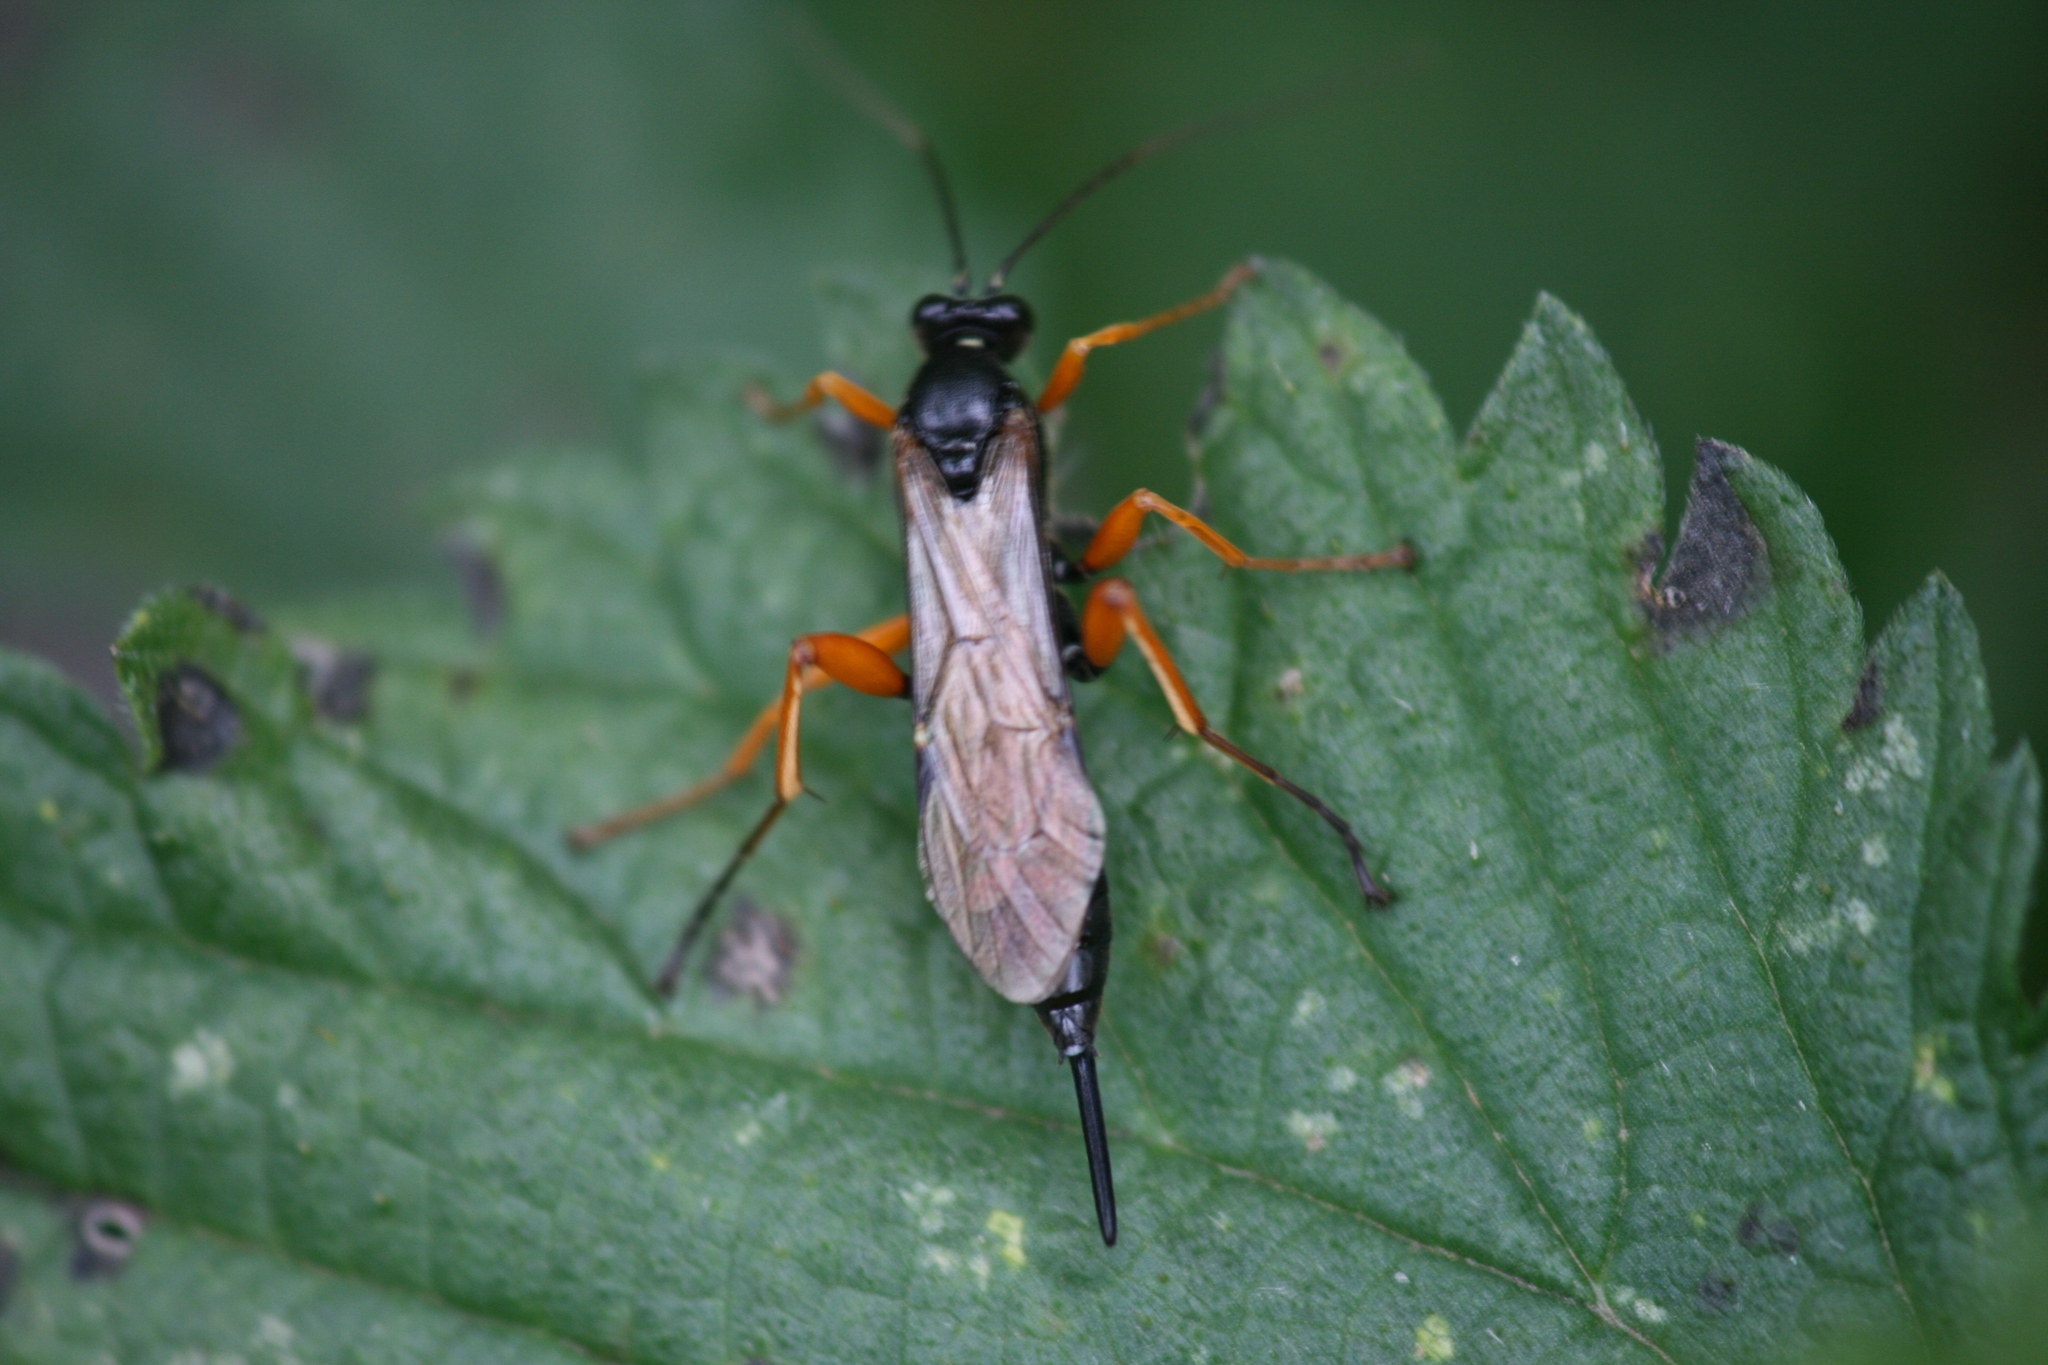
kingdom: Animalia
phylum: Arthropoda
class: Insecta
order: Hymenoptera
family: Ichneumonidae
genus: Pimpla
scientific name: Pimpla rufipes
